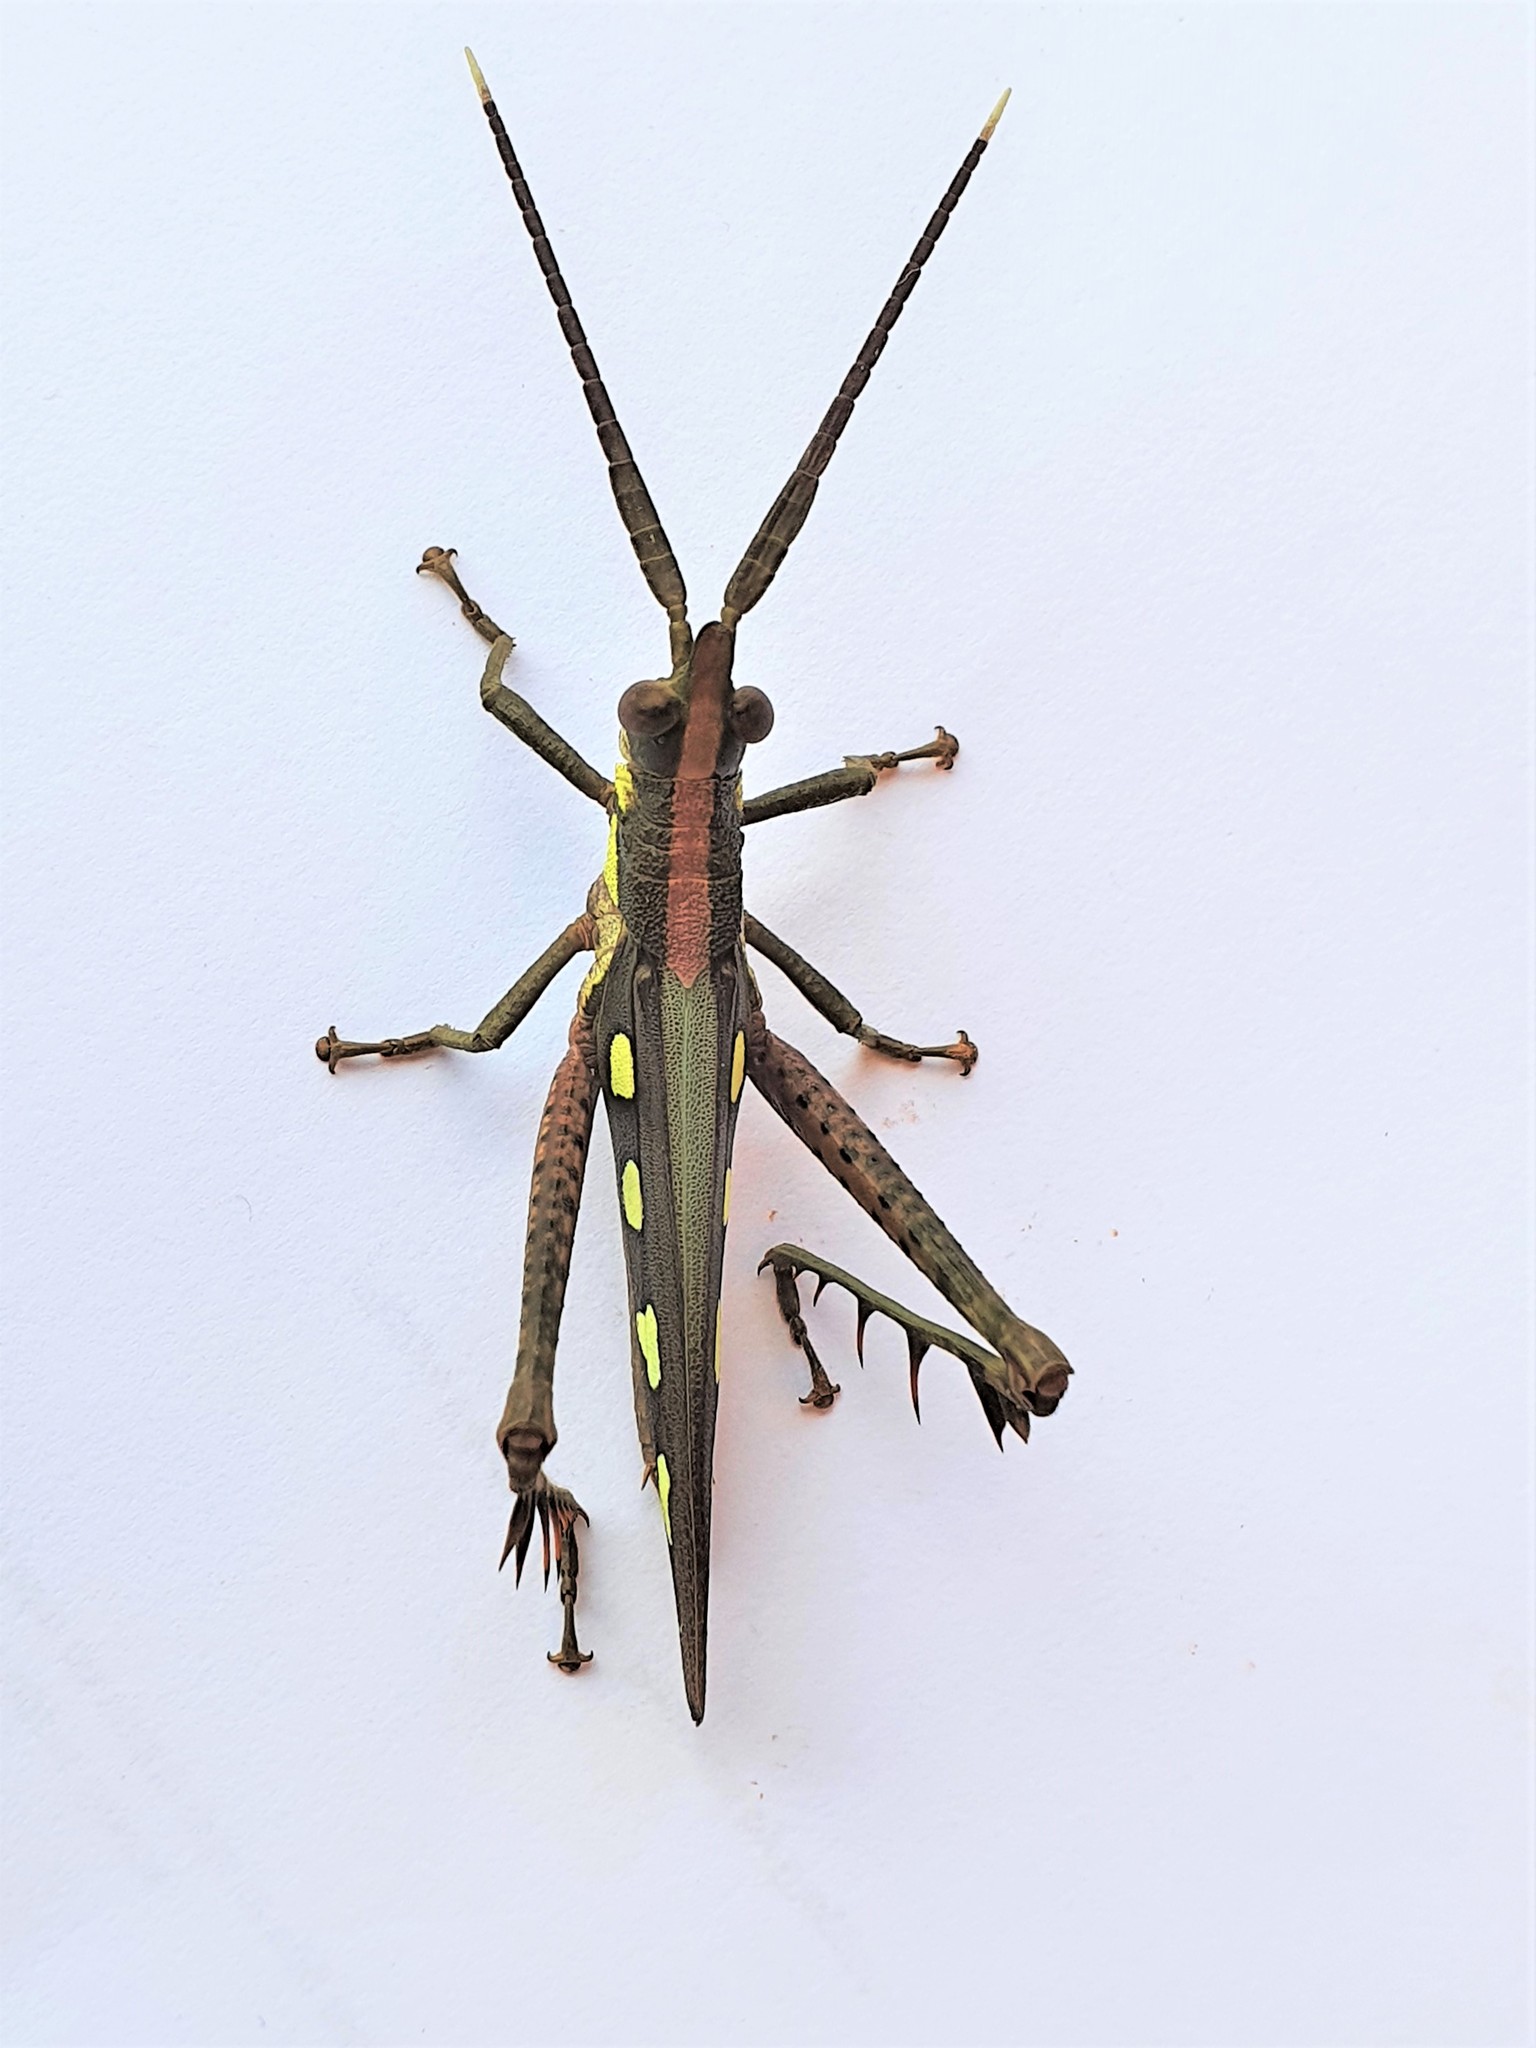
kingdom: Animalia
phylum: Arthropoda
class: Insecta
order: Orthoptera
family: Romaleidae
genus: Aeolacris
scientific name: Aeolacris caternaultii
